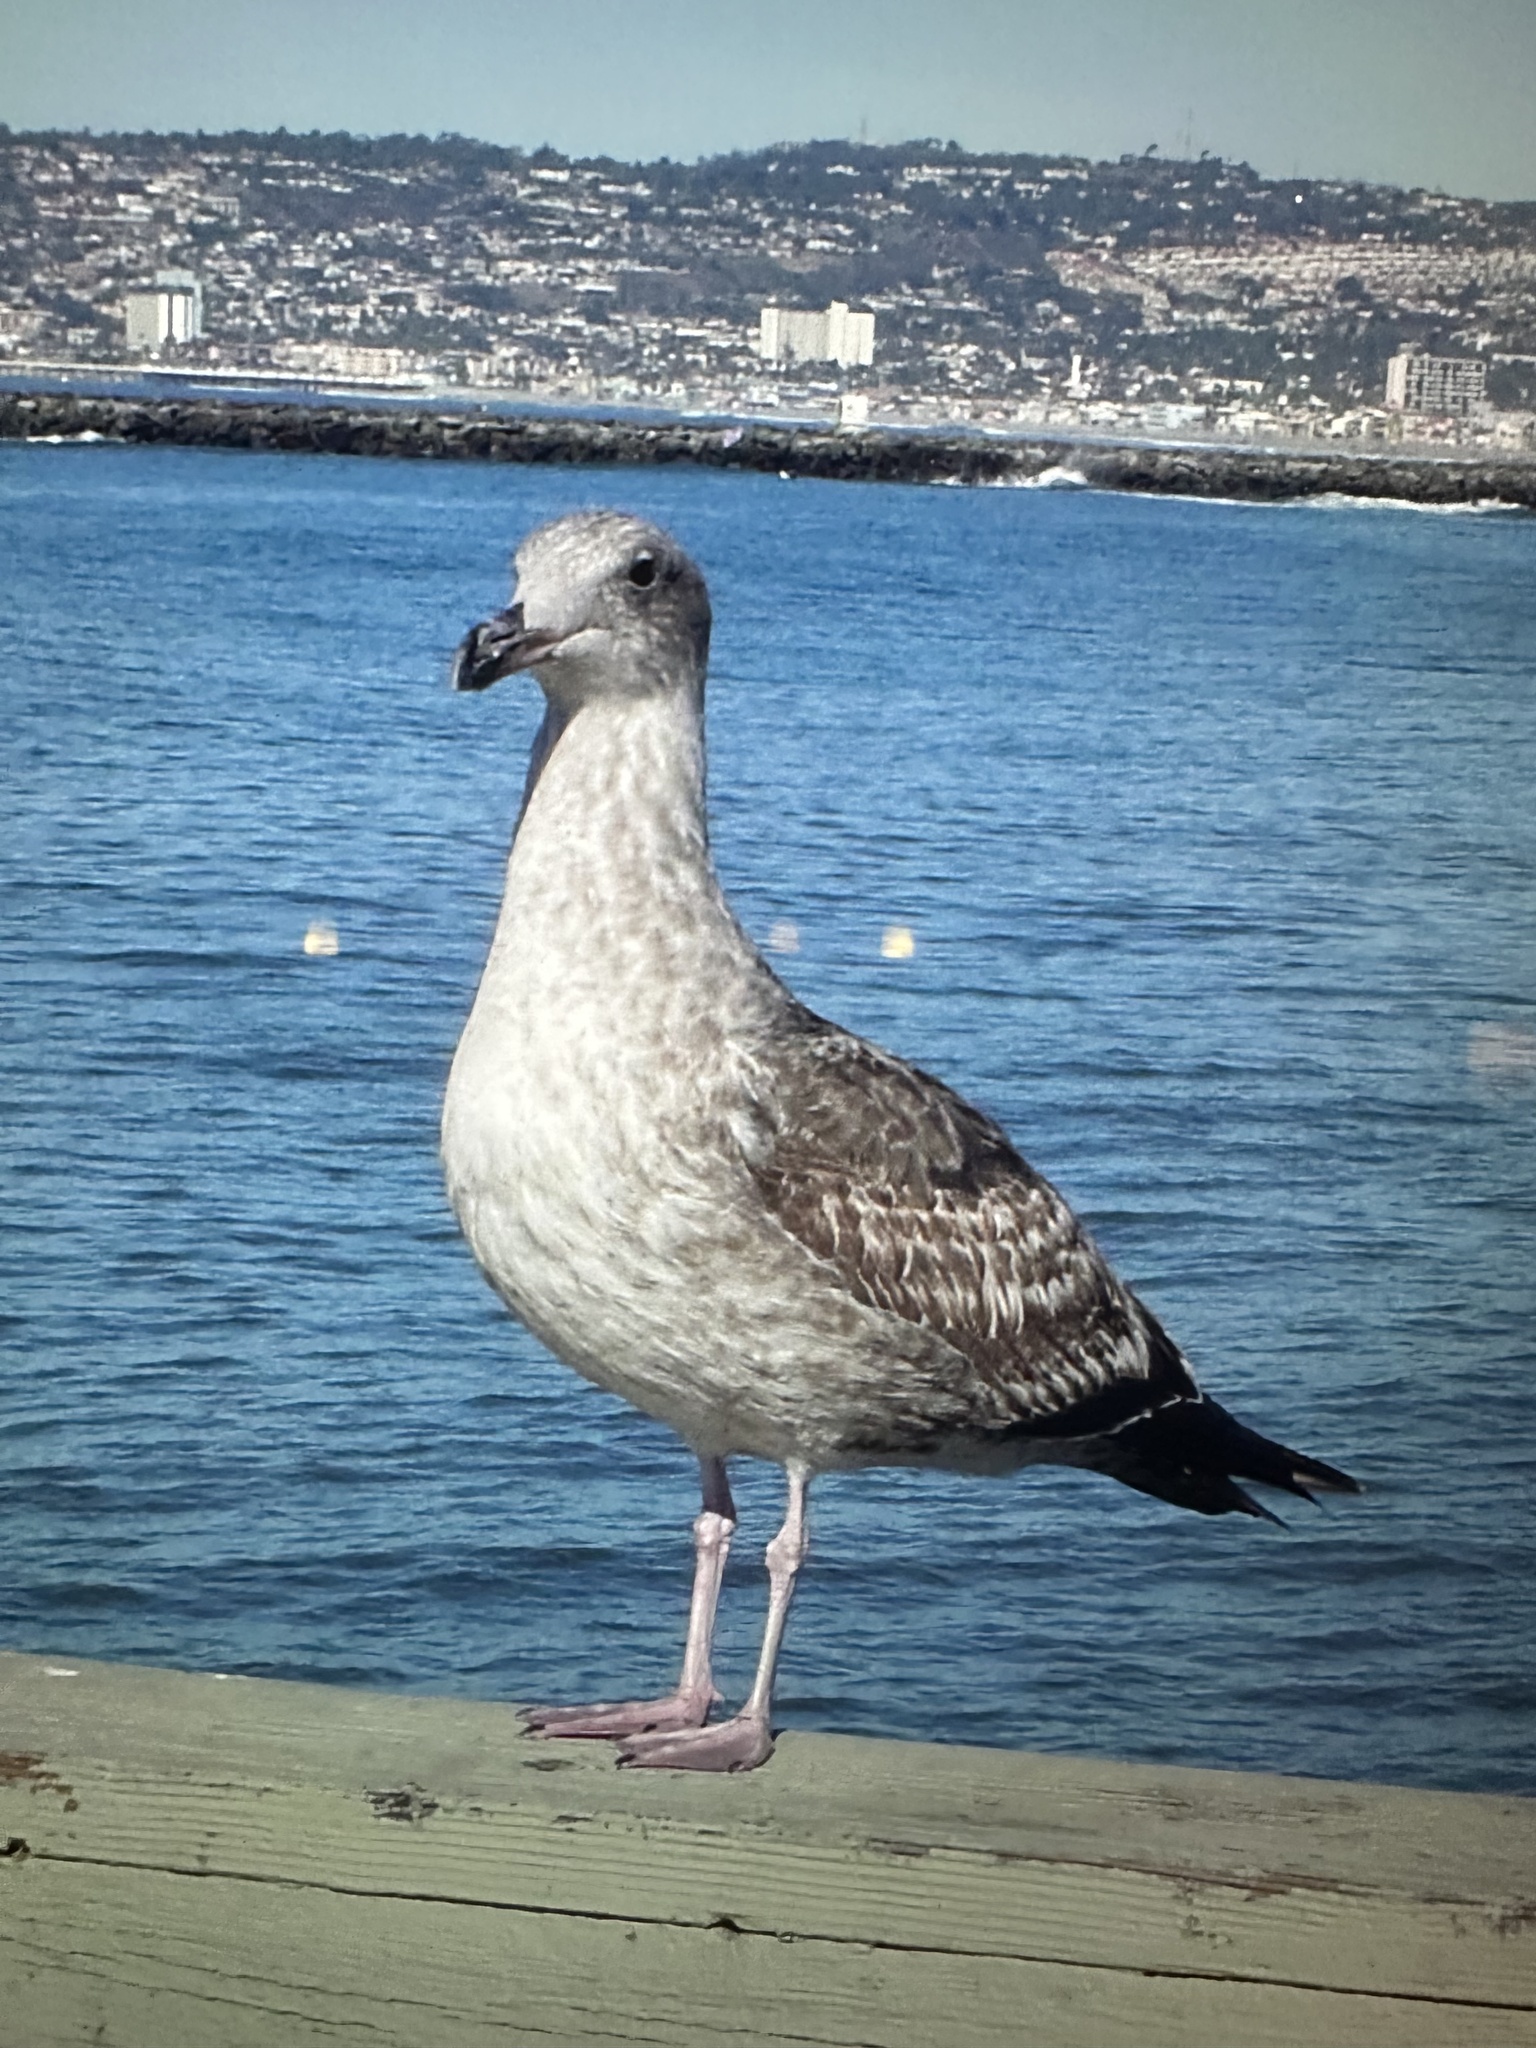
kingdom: Animalia
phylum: Chordata
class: Aves
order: Charadriiformes
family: Laridae
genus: Larus
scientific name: Larus occidentalis
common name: Western gull
